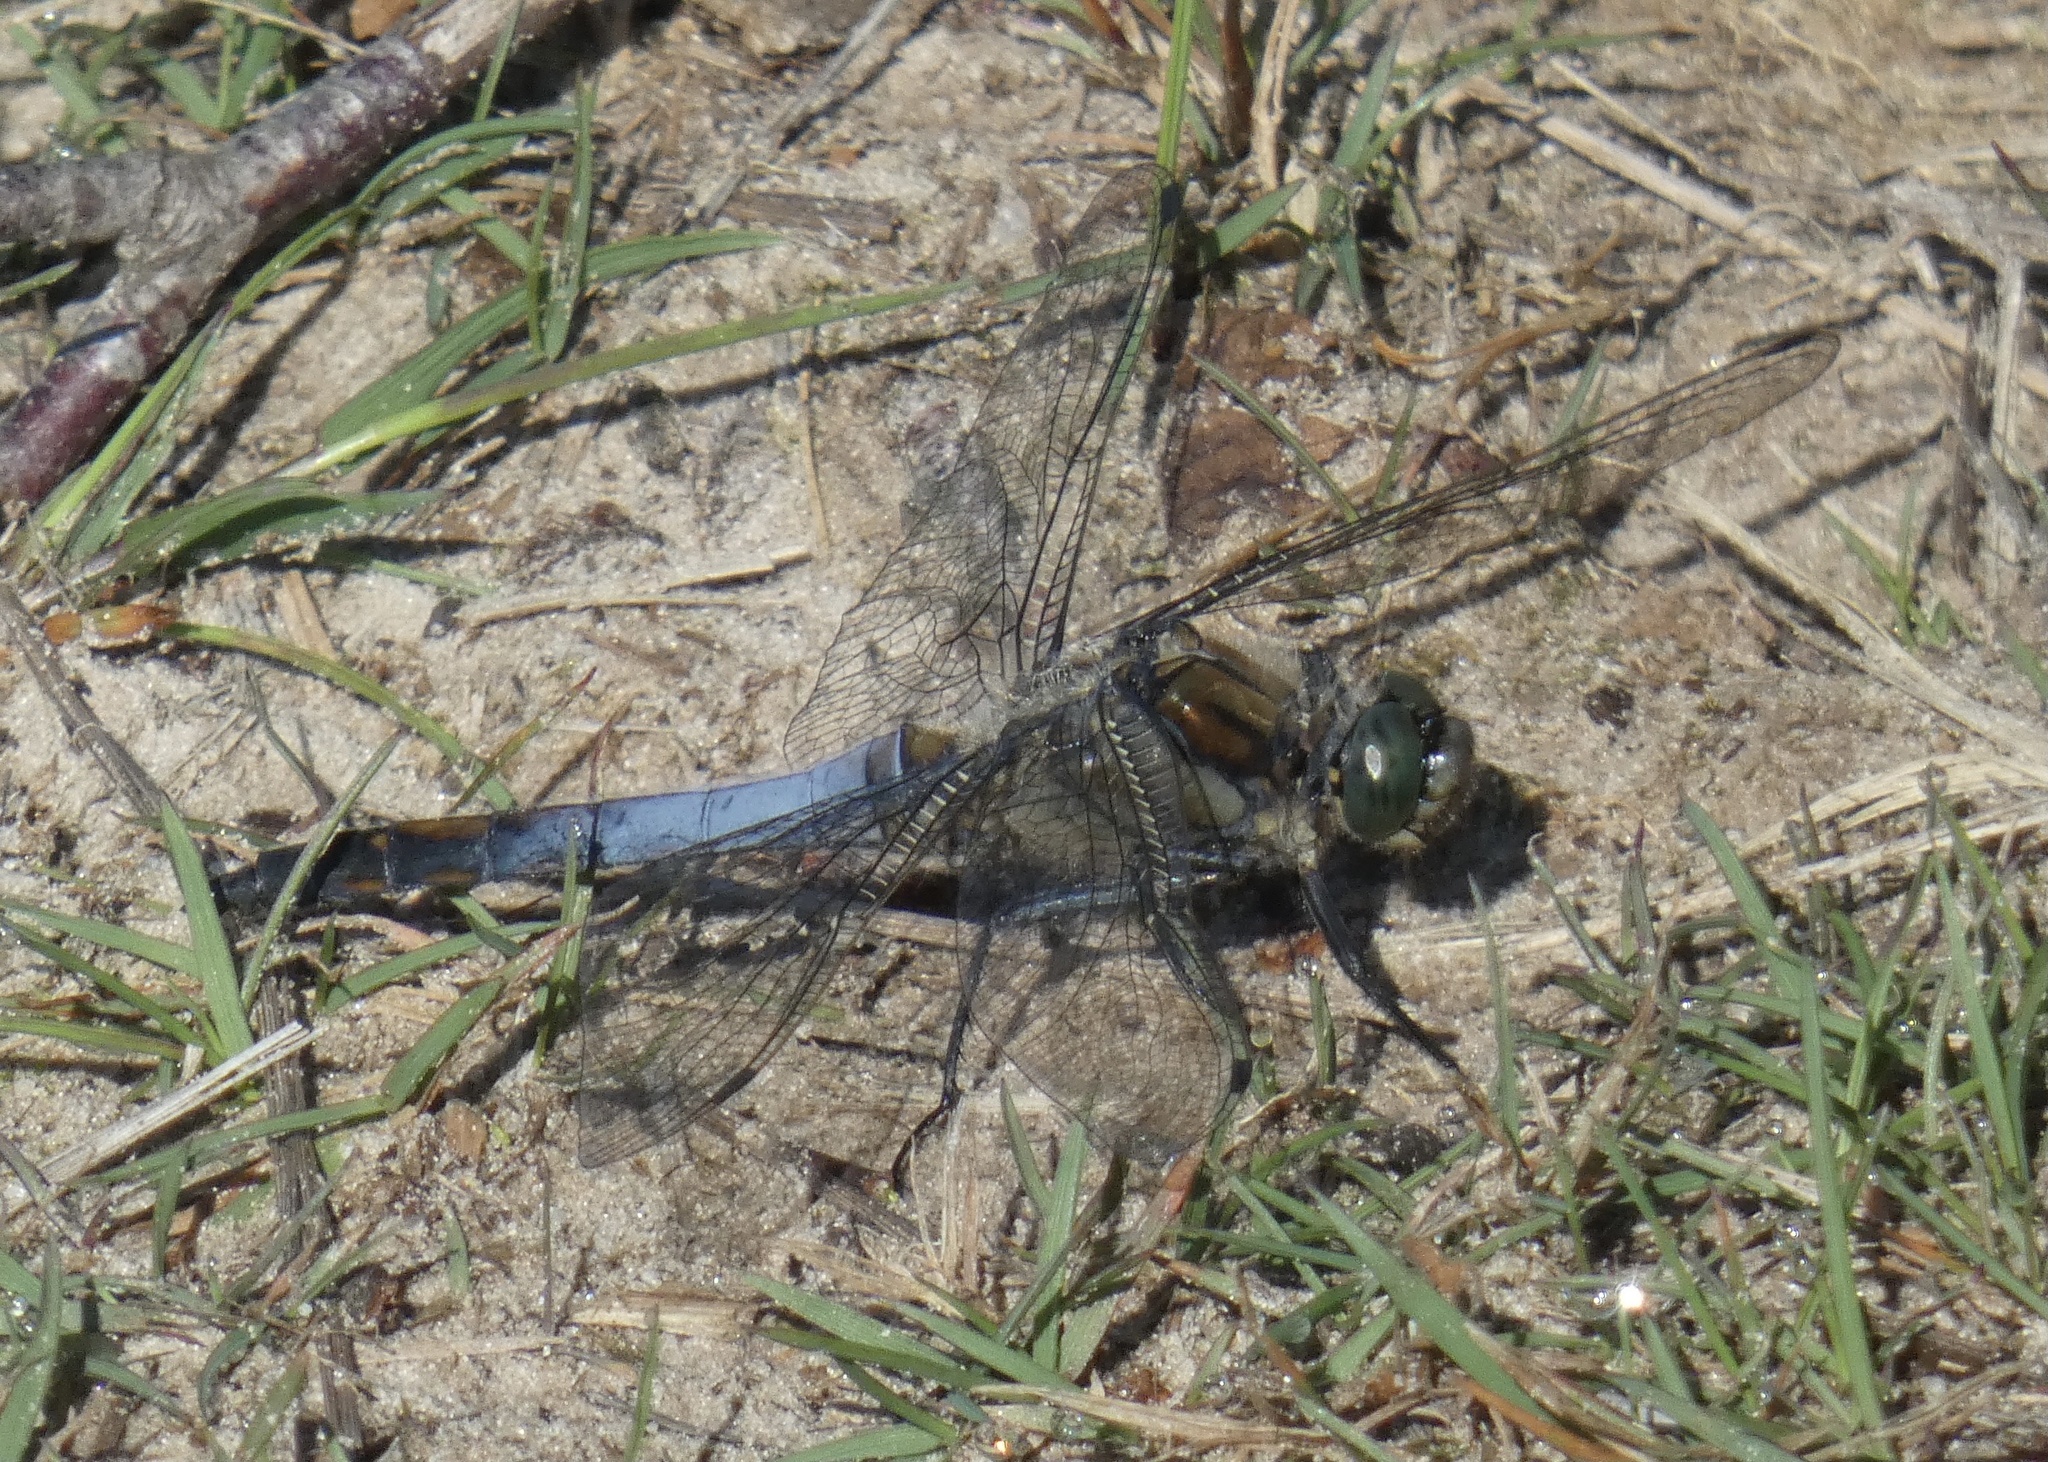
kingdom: Animalia
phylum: Arthropoda
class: Insecta
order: Odonata
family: Libellulidae
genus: Orthetrum
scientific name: Orthetrum cancellatum
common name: Black-tailed skimmer
